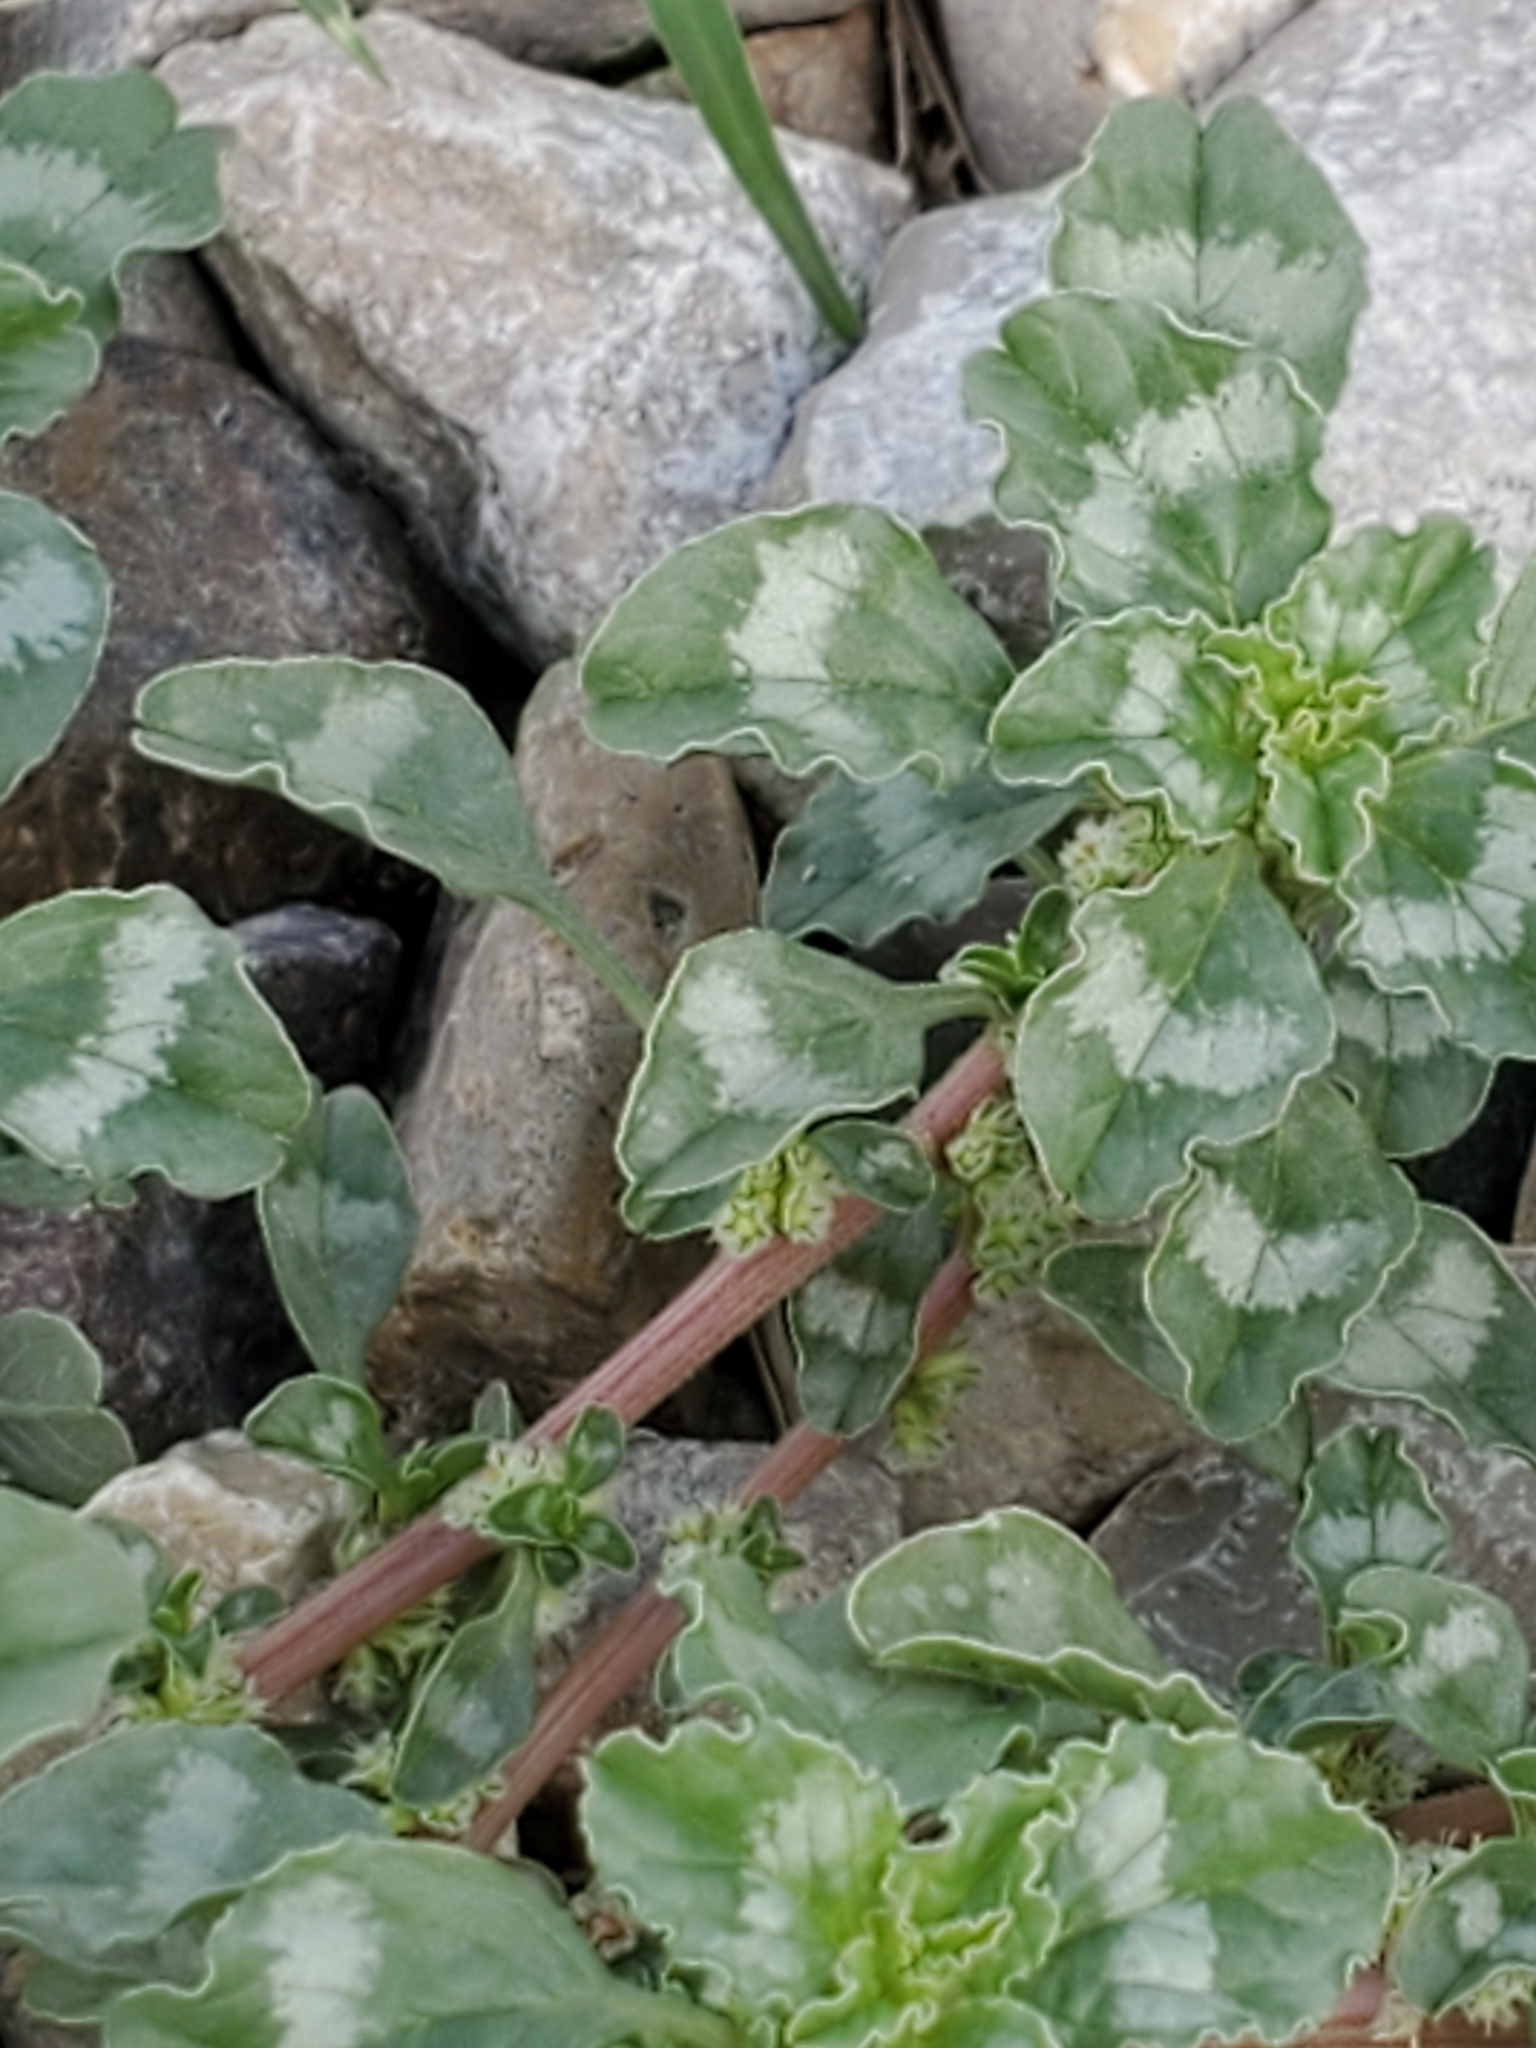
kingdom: Plantae
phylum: Tracheophyta
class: Magnoliopsida
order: Caryophyllales
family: Amaranthaceae
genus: Amaranthus
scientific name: Amaranthus blitoides
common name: Prostrate pigweed
